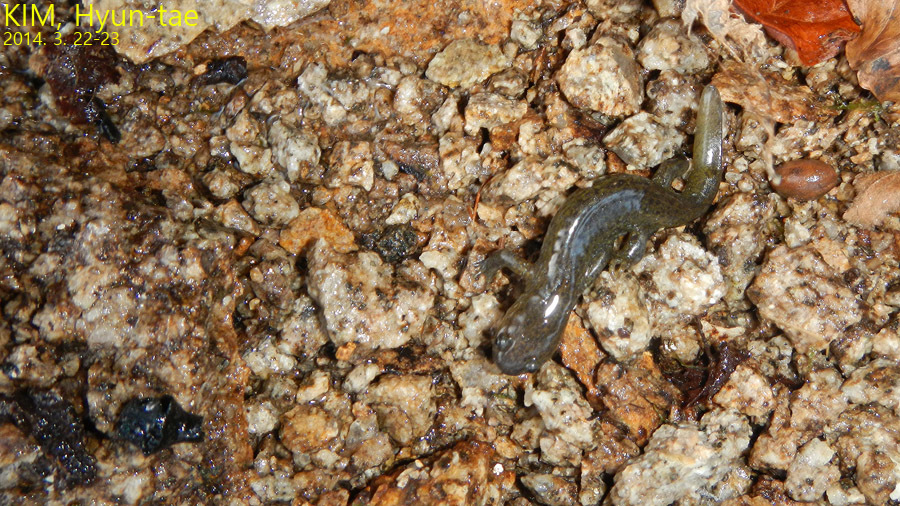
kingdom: Animalia
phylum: Chordata
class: Amphibia
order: Caudata
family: Hynobiidae
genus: Hynobius
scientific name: Hynobius leechii
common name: Gensan salamander
